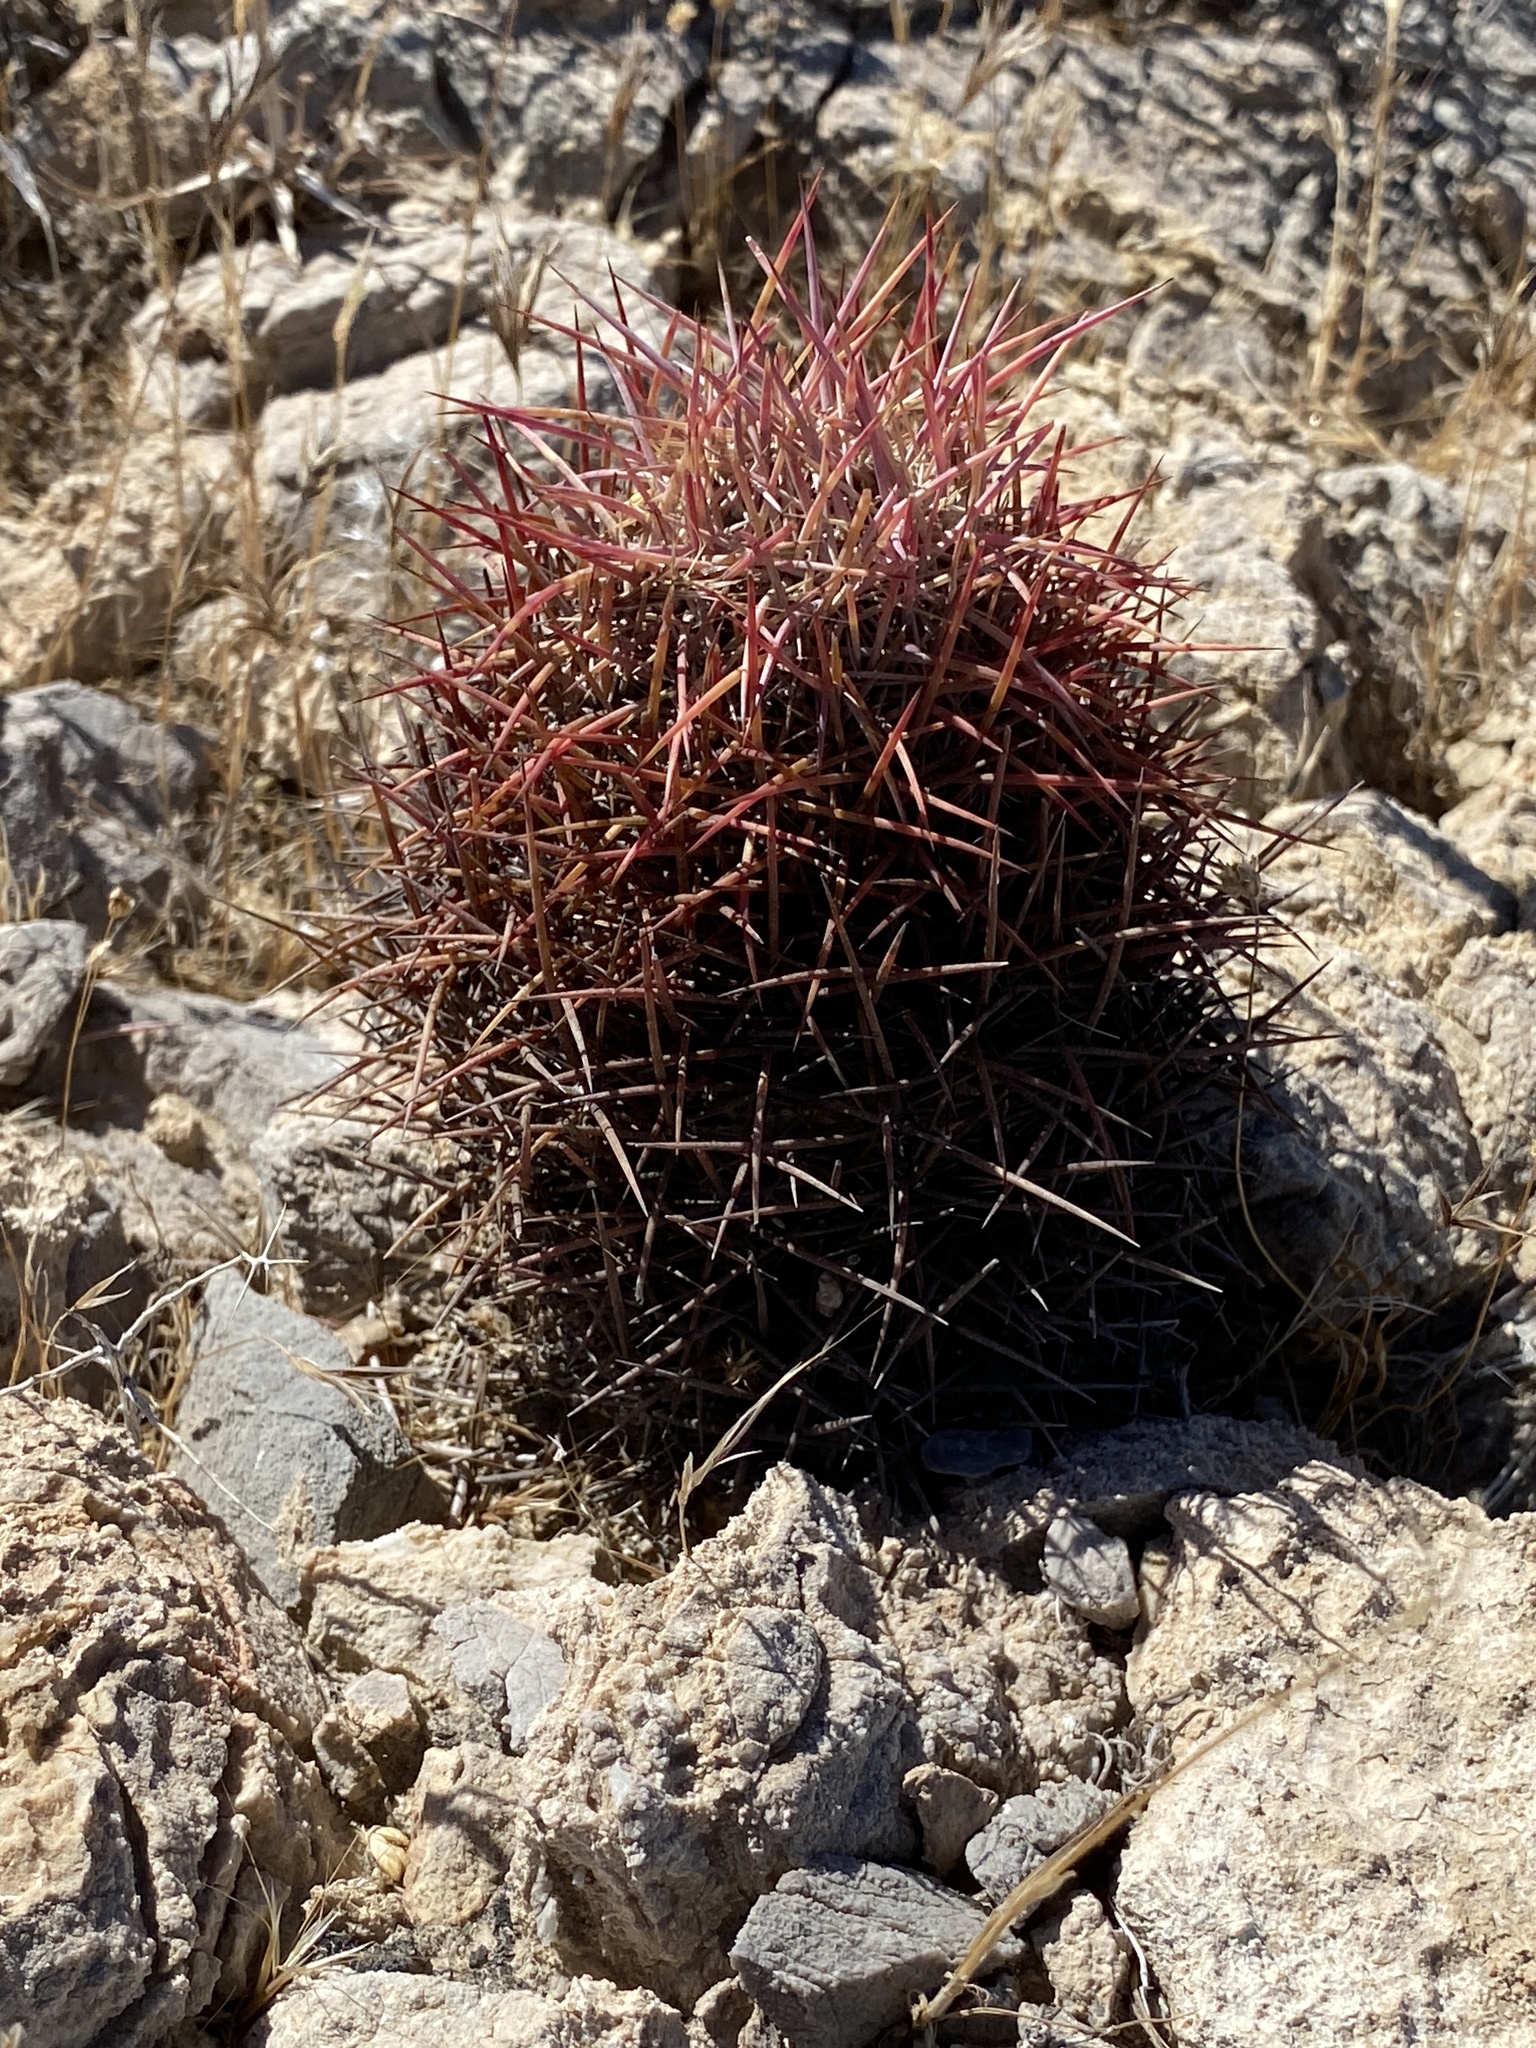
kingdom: Plantae
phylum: Tracheophyta
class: Magnoliopsida
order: Caryophyllales
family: Cactaceae
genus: Sclerocactus
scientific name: Sclerocactus johnsonii
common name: Eight-spine fishhook cactus
